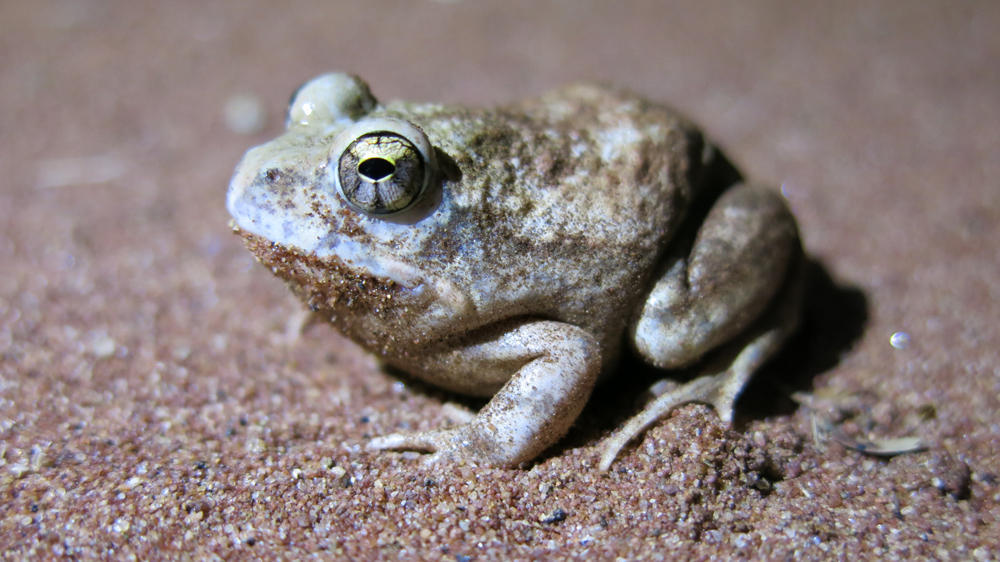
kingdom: Animalia
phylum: Chordata
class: Amphibia
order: Anura
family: Pyxicephalidae
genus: Tomopterna
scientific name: Tomopterna marmorata
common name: Russet-backed sand frog
